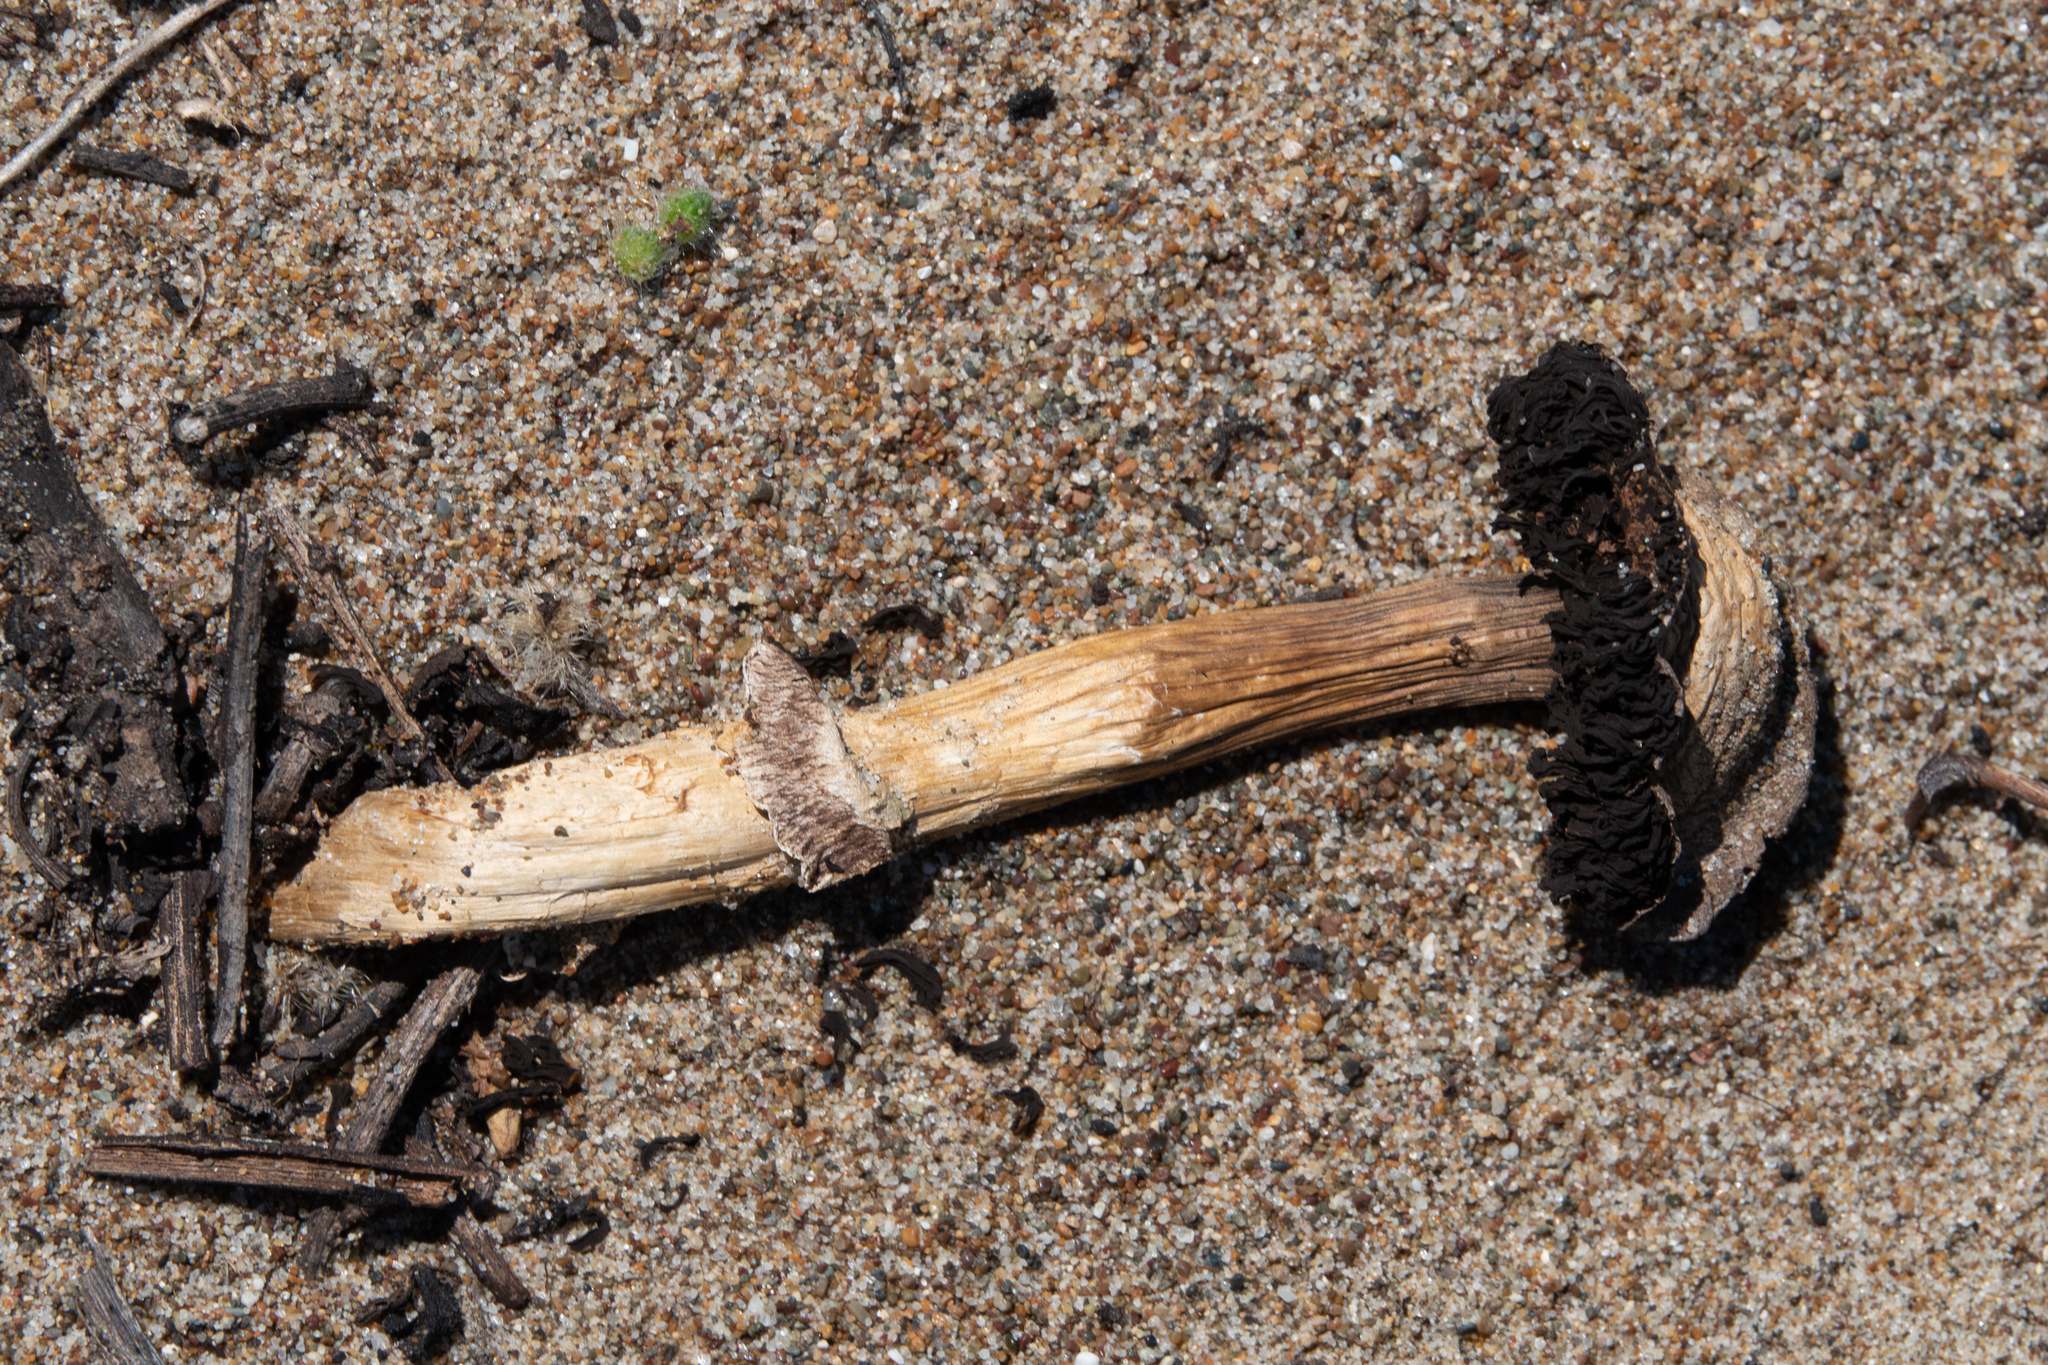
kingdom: Fungi
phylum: Basidiomycota
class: Agaricomycetes
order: Agaricales
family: Agaricaceae
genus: Montagnea
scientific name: Montagnea arenaria
